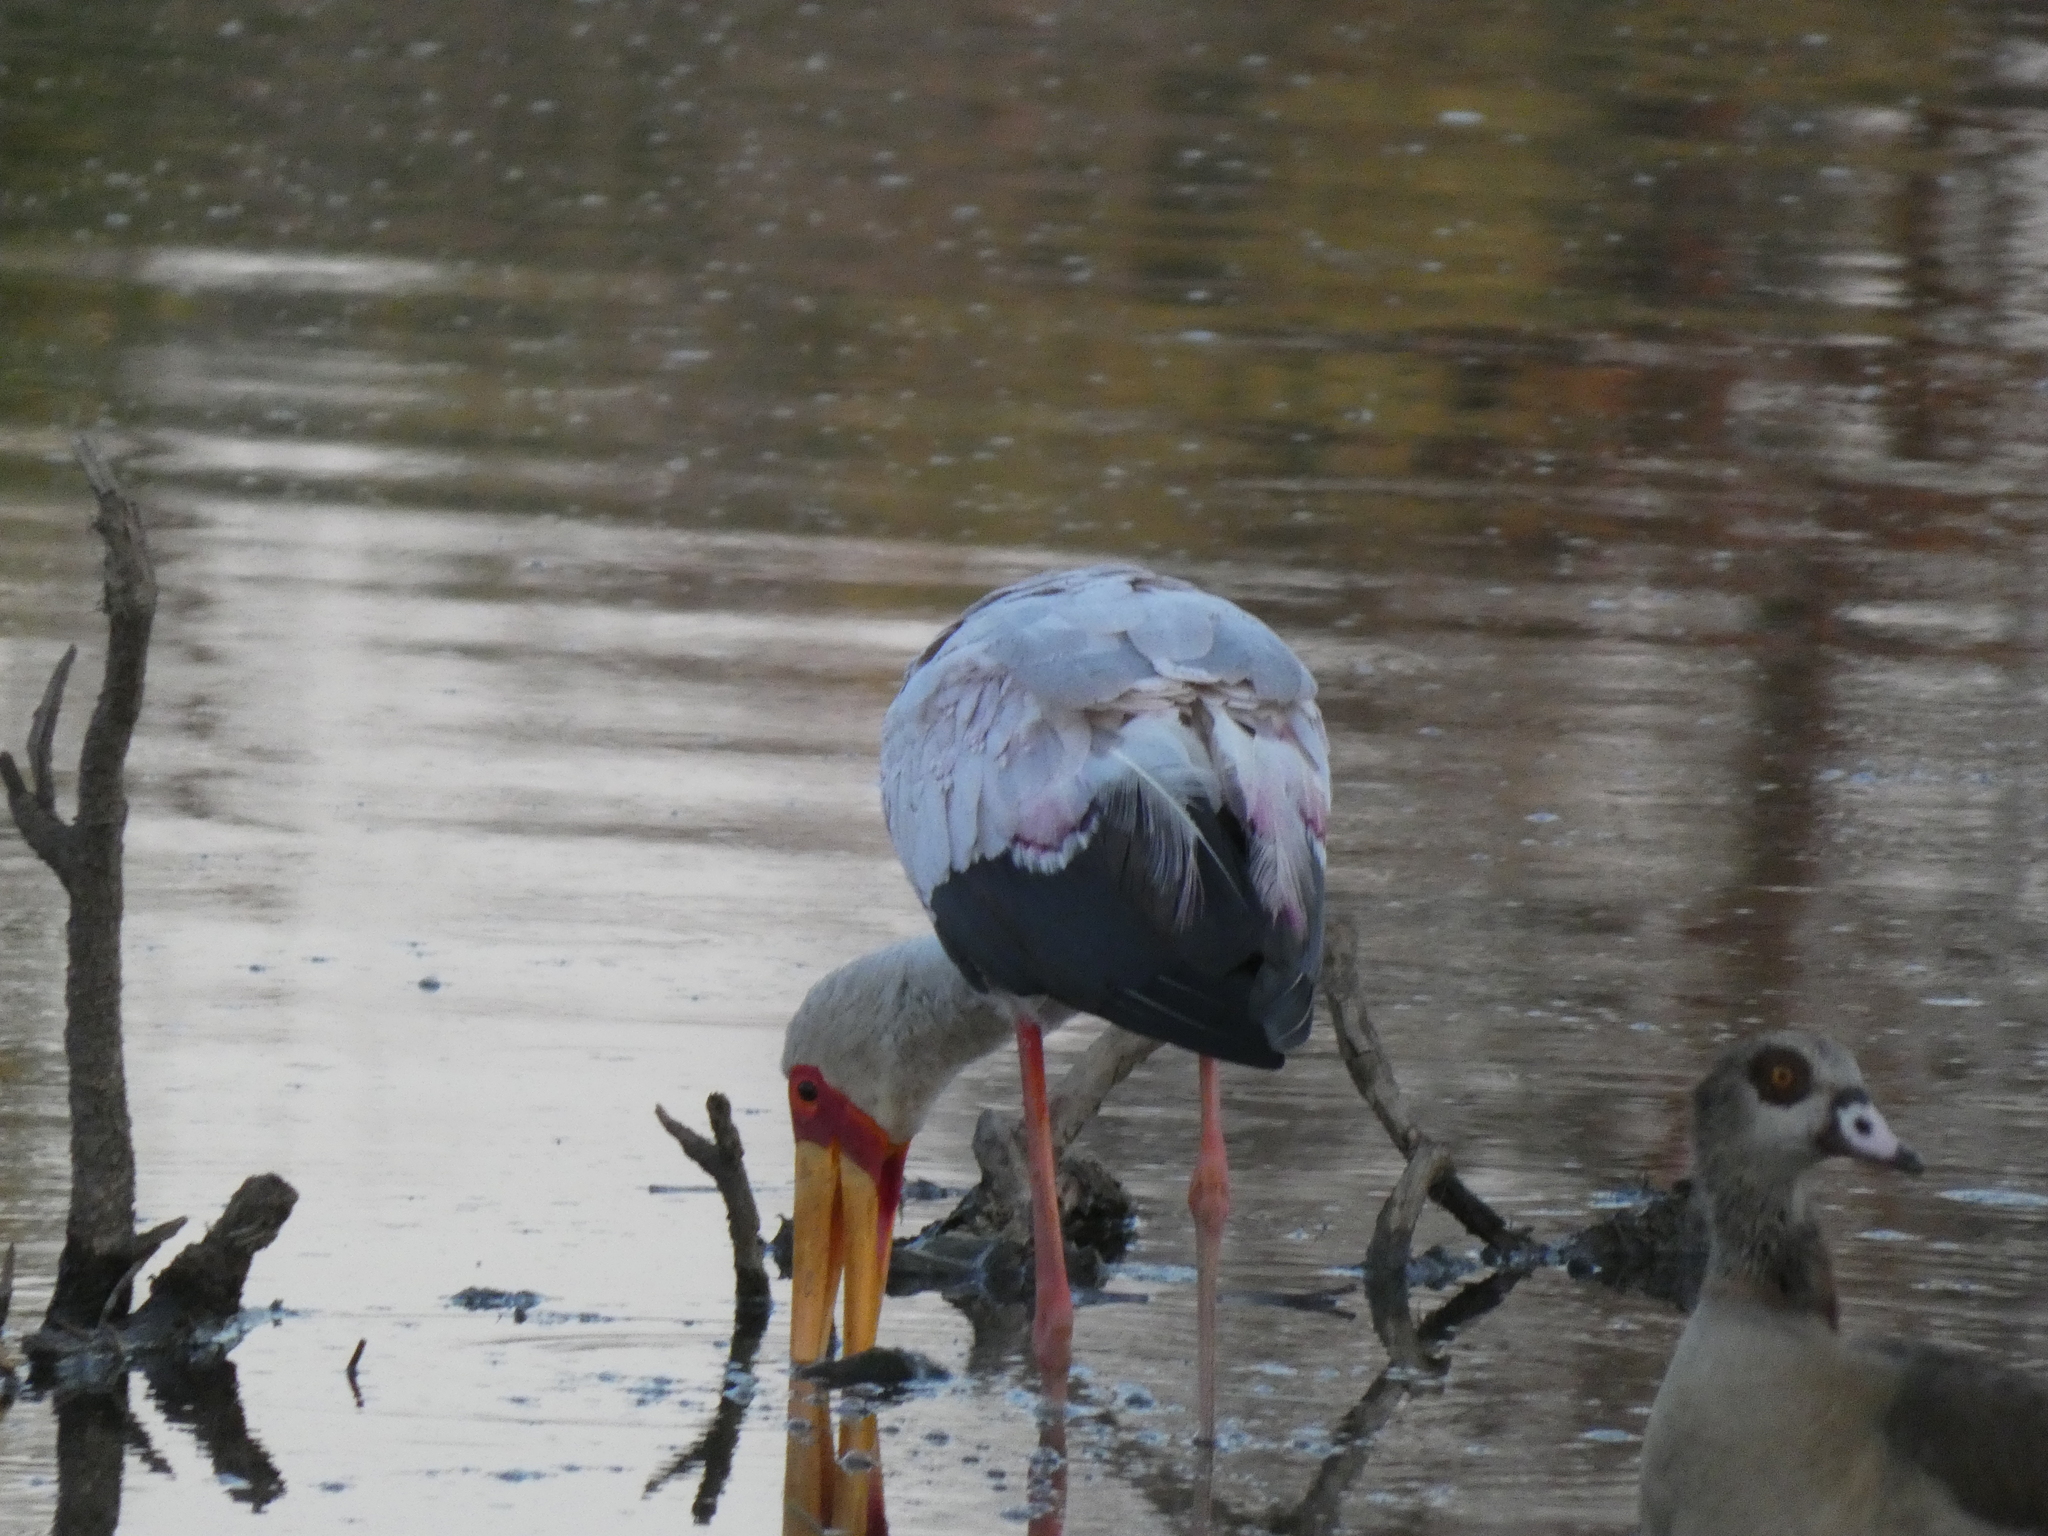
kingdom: Animalia
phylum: Chordata
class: Aves
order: Ciconiiformes
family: Ciconiidae
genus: Mycteria
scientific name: Mycteria ibis
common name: Yellow-billed stork
